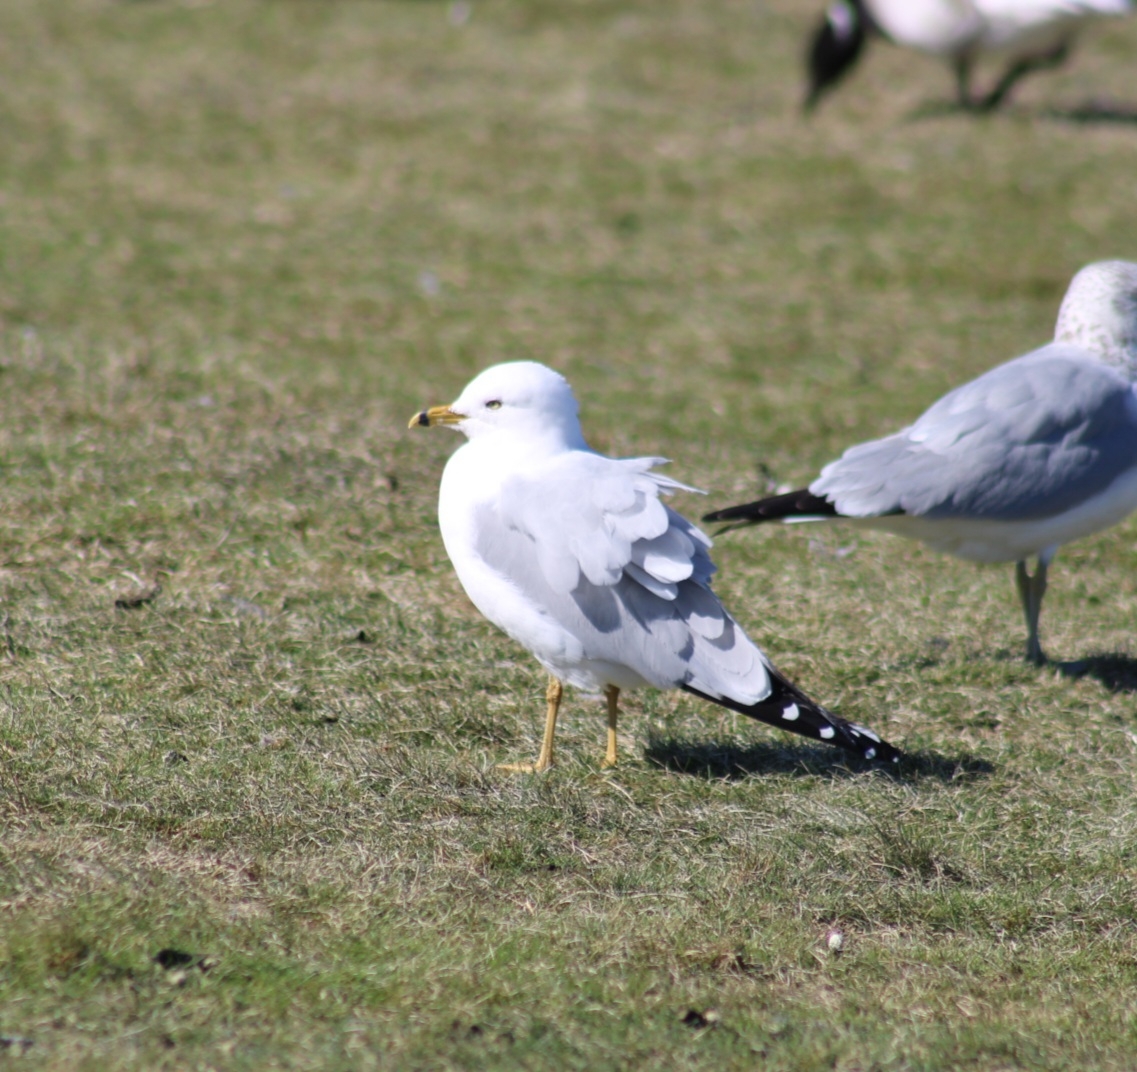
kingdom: Animalia
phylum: Chordata
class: Aves
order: Charadriiformes
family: Laridae
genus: Larus
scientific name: Larus delawarensis
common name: Ring-billed gull
